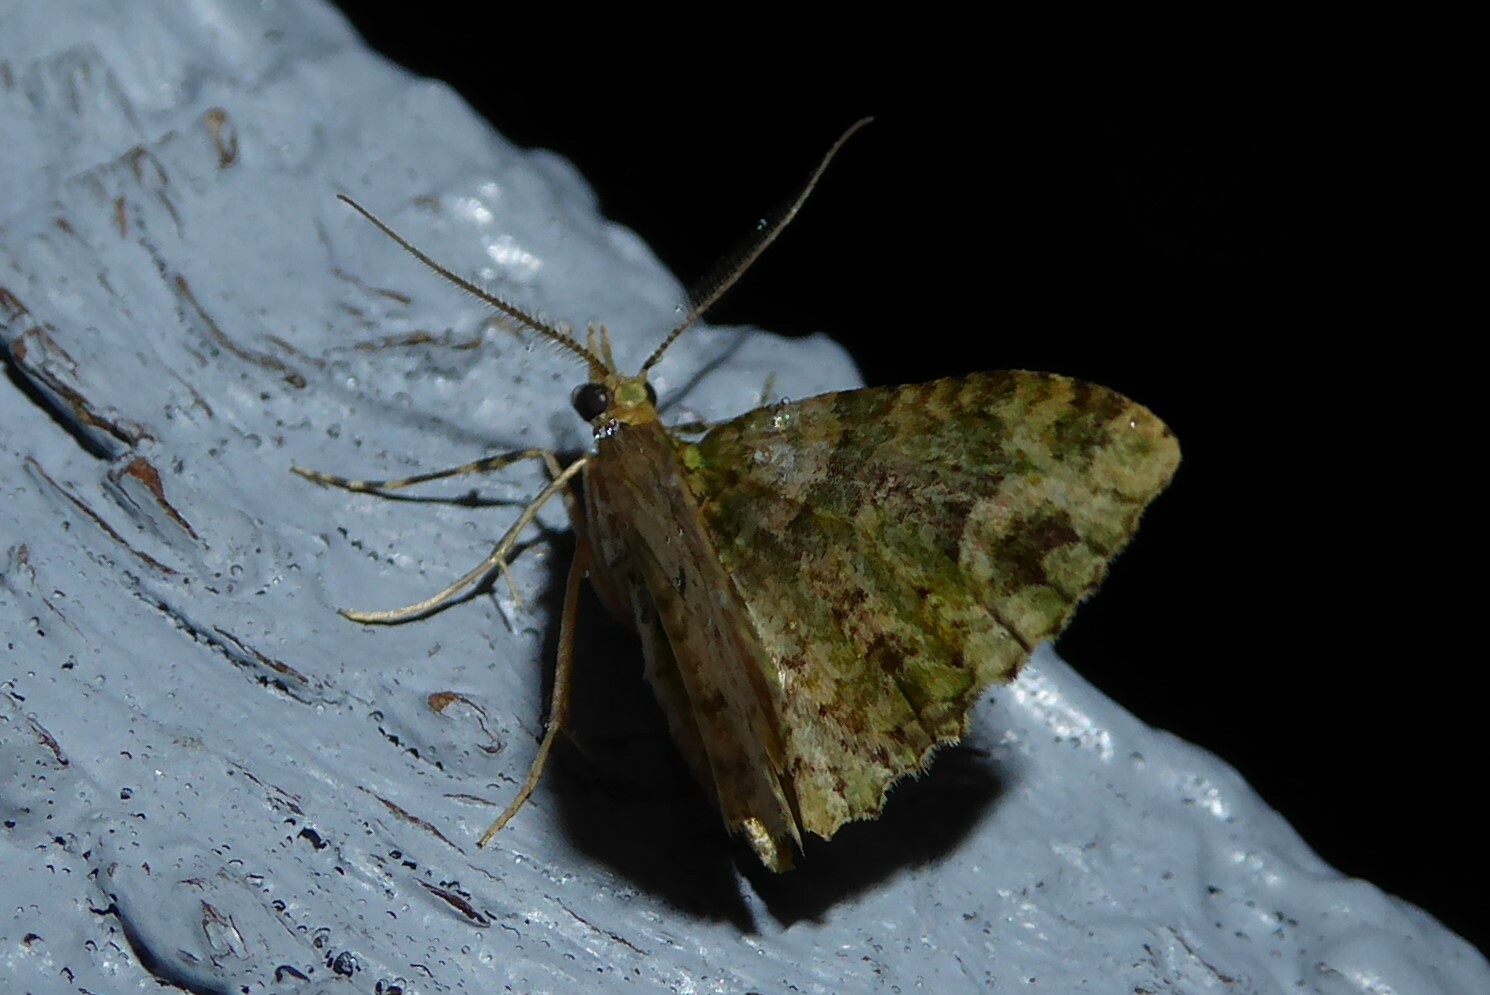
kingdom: Animalia
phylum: Arthropoda
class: Insecta
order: Lepidoptera
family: Geometridae
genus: Idaea
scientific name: Idaea mutanda
